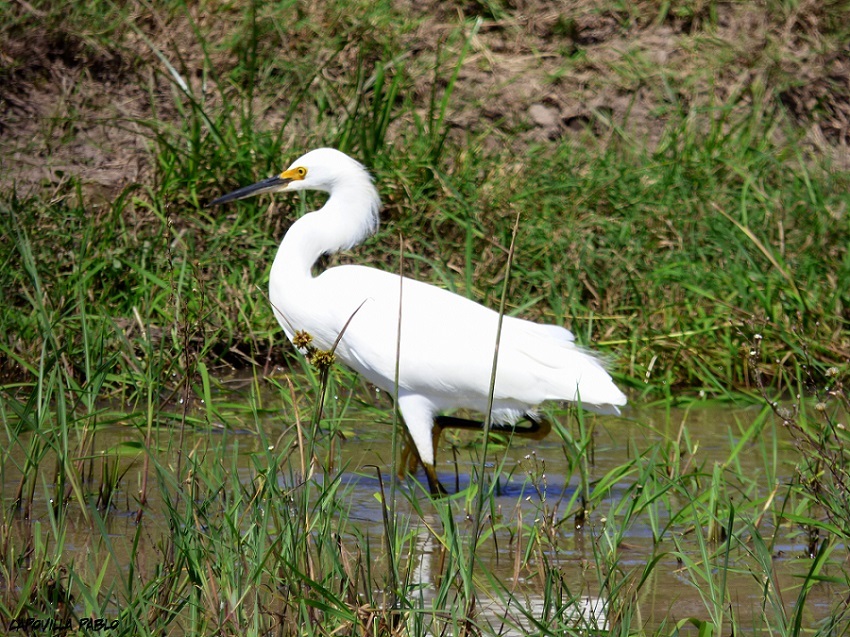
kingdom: Animalia
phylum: Chordata
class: Aves
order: Pelecaniformes
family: Ardeidae
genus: Egretta
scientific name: Egretta thula
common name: Snowy egret
